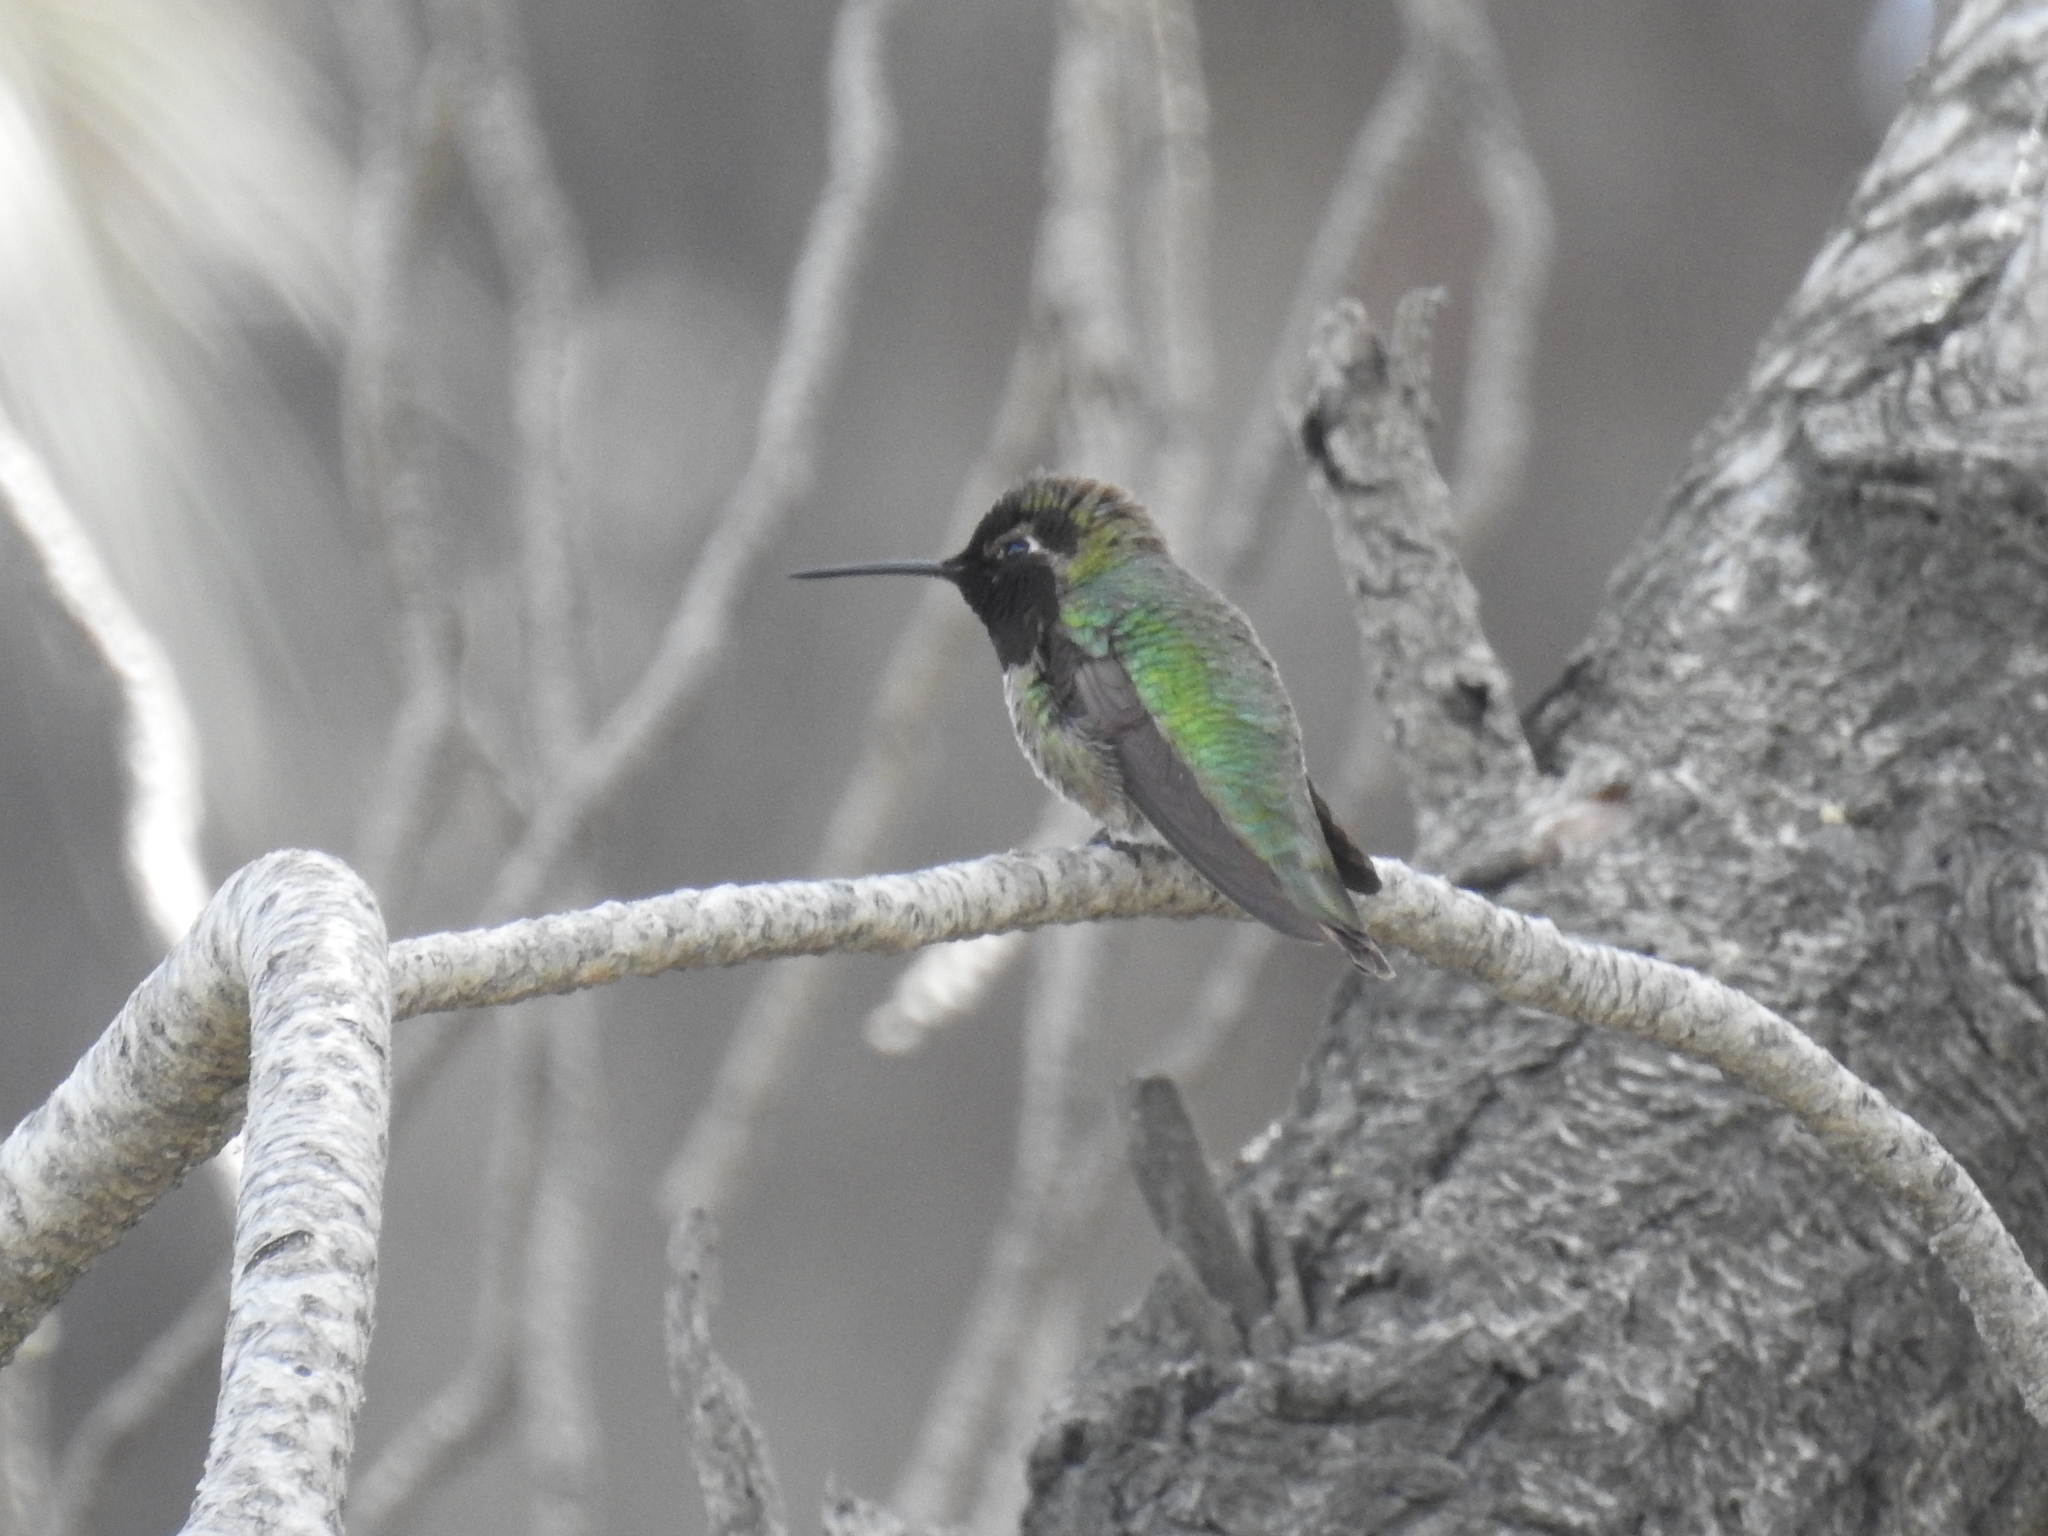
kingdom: Animalia
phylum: Chordata
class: Aves
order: Apodiformes
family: Trochilidae
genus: Calypte
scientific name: Calypte anna
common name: Anna's hummingbird
